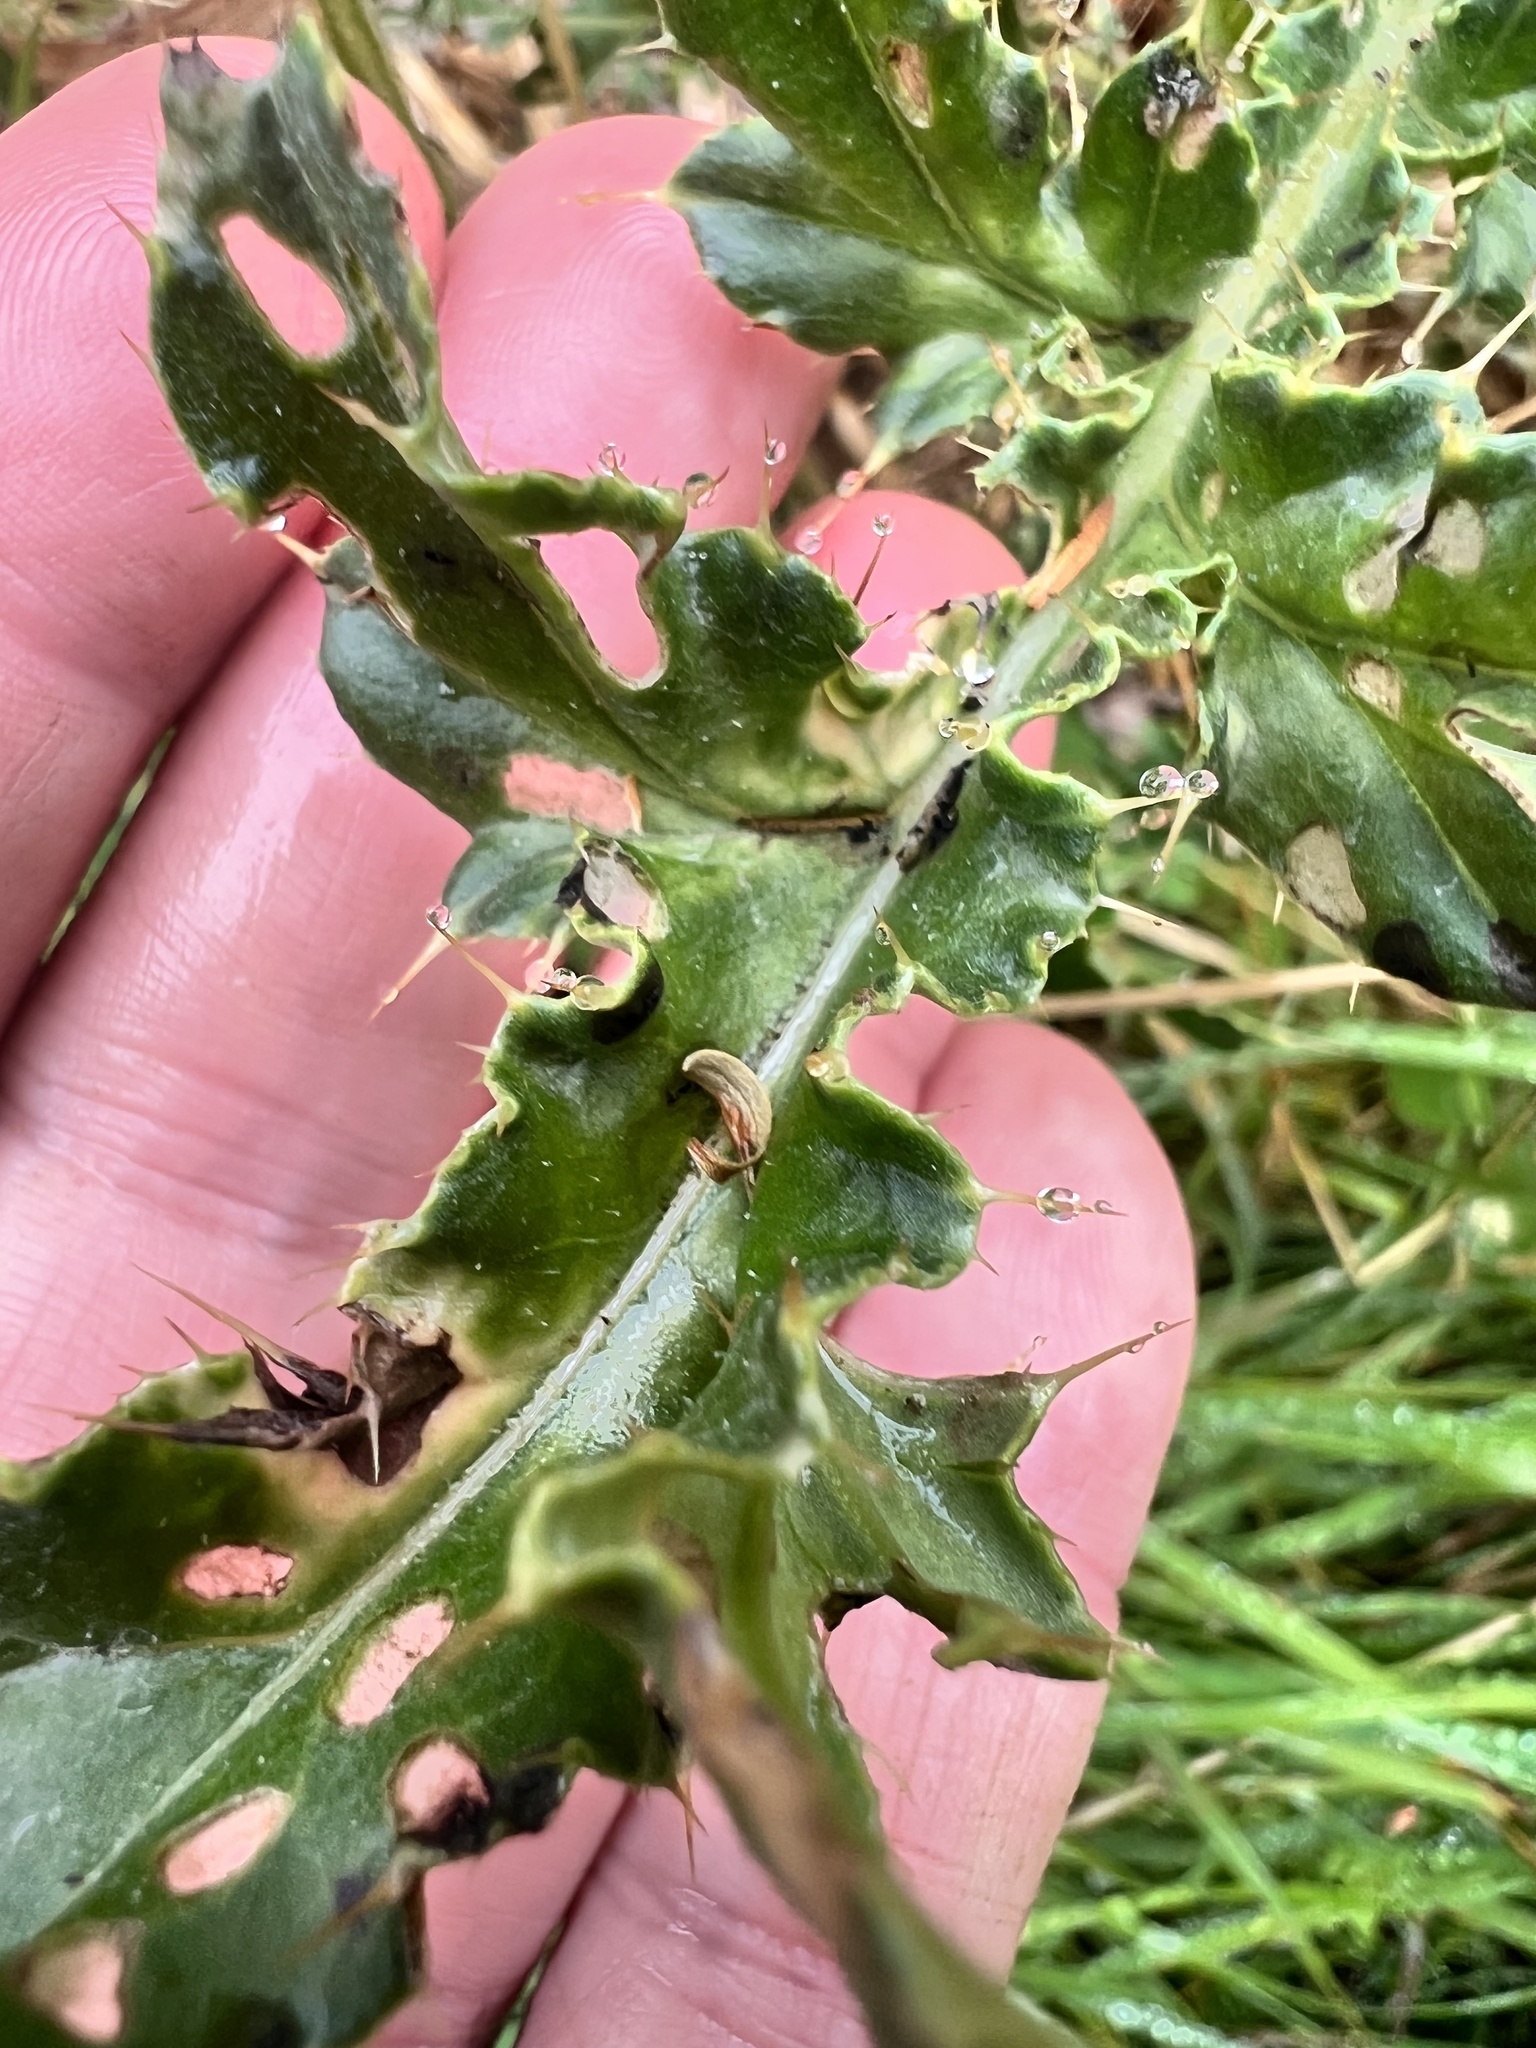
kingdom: Plantae
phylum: Tracheophyta
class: Magnoliopsida
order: Asterales
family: Asteraceae
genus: Cirsium
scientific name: Cirsium arvense
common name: Creeping thistle
